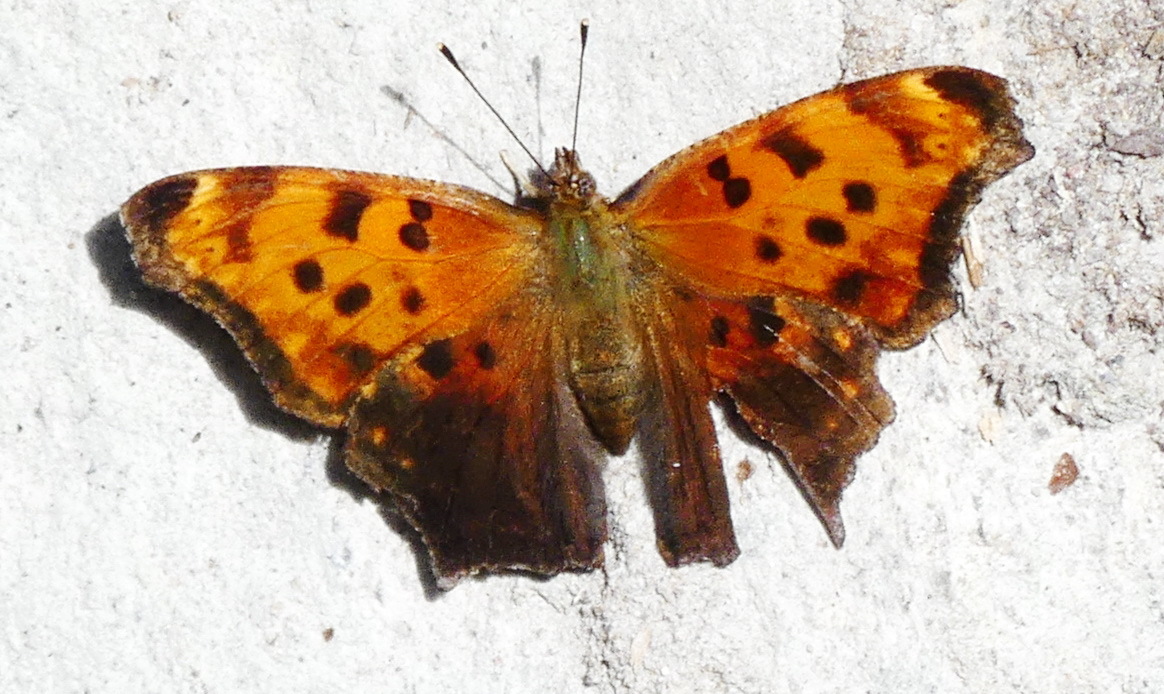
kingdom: Animalia
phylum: Arthropoda
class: Insecta
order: Lepidoptera
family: Nymphalidae
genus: Polygonia
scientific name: Polygonia comma
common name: Eastern comma
